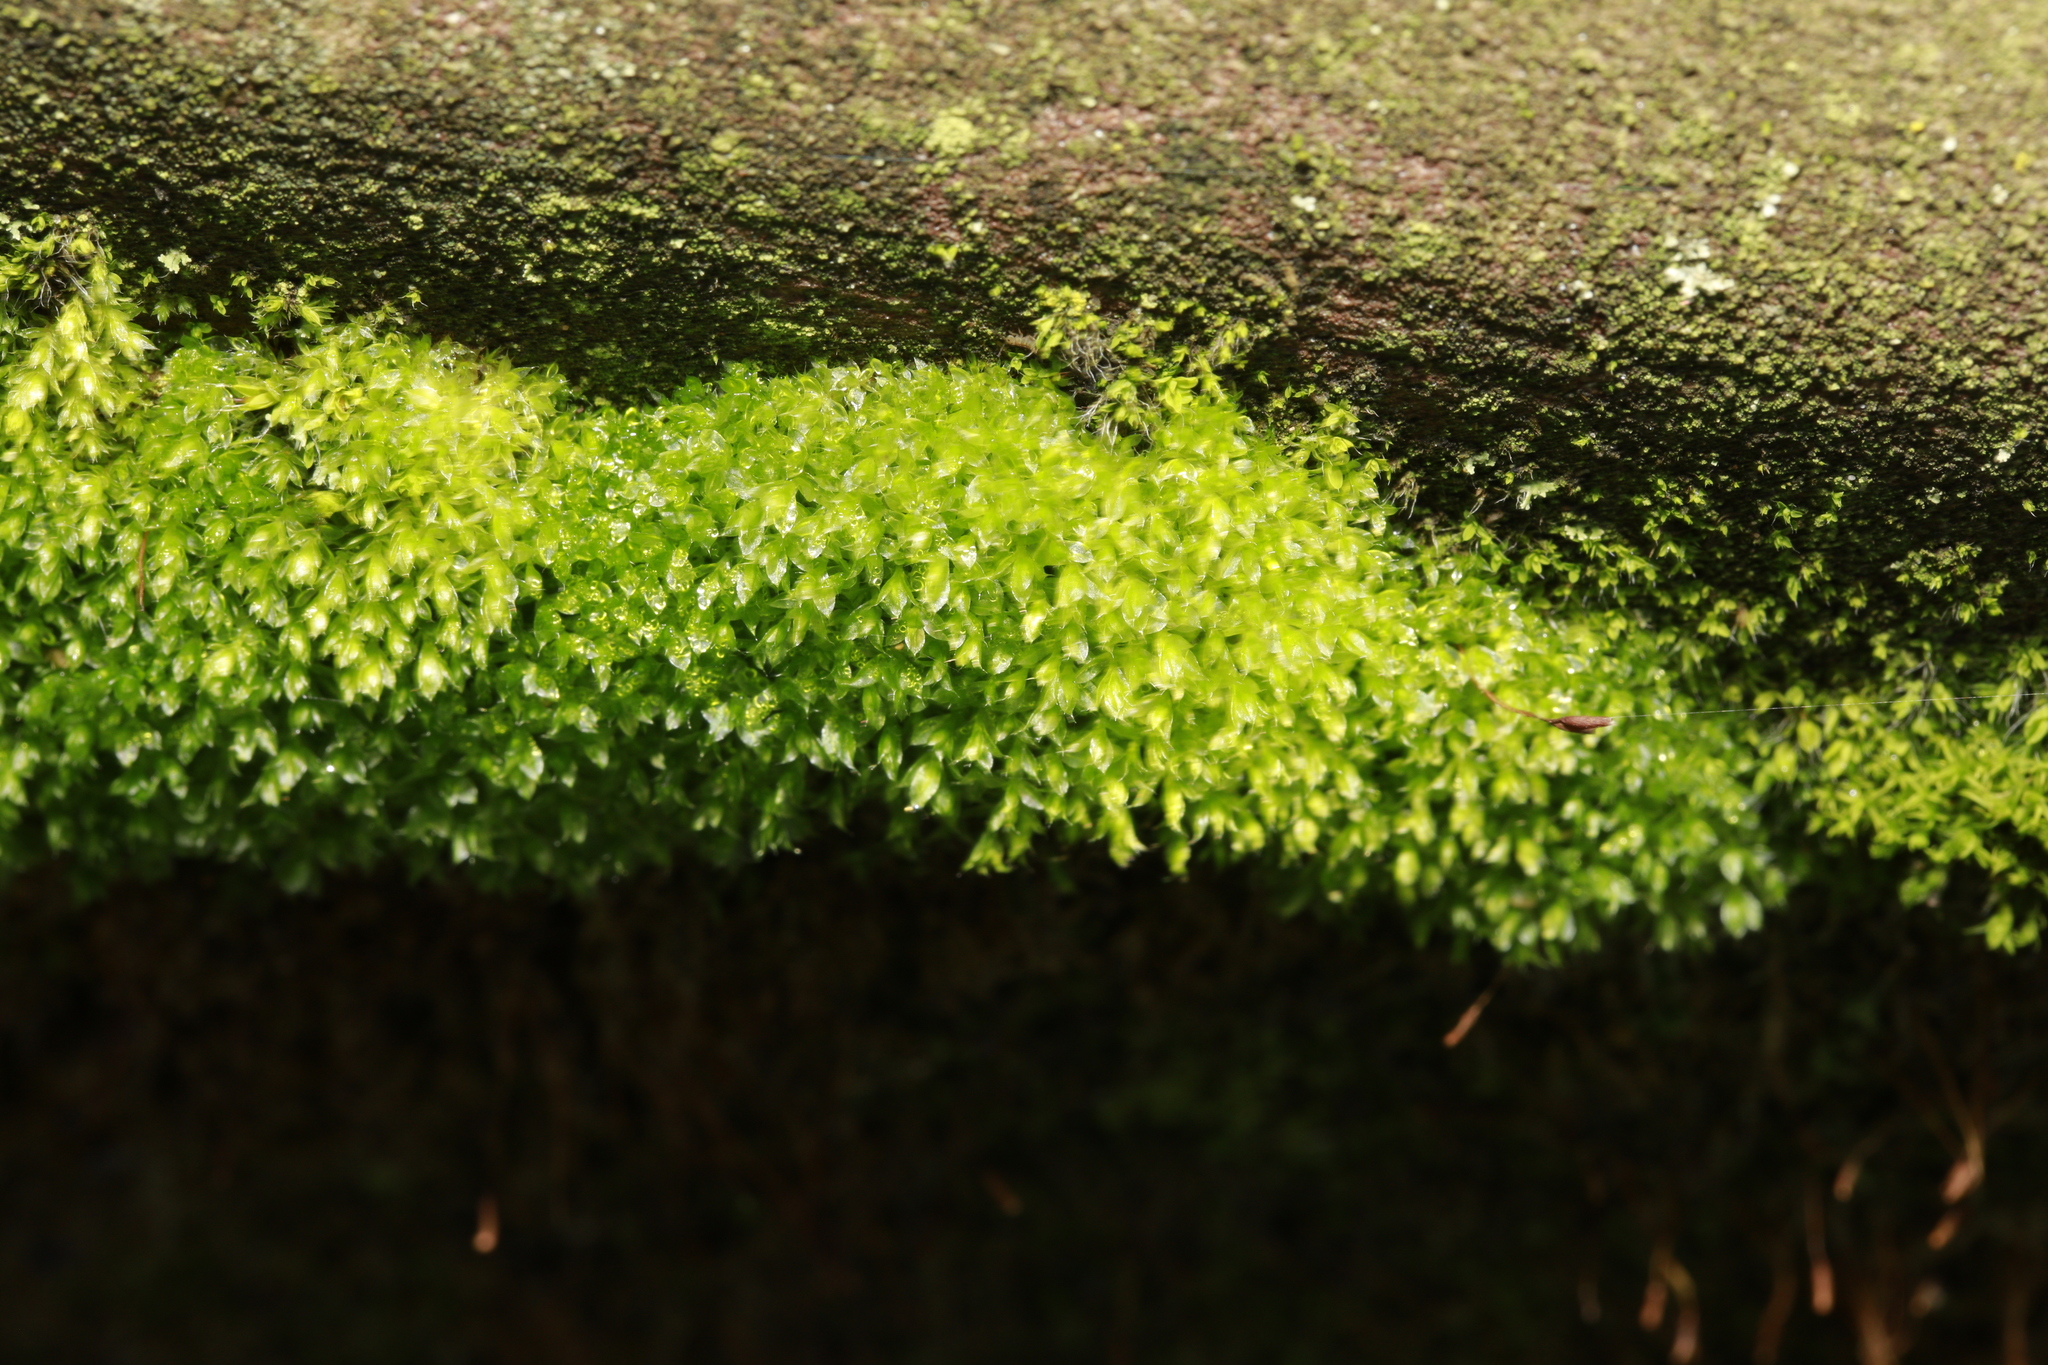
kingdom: Plantae
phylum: Bryophyta
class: Bryopsida
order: Bryales
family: Bryaceae
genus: Rosulabryum
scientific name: Rosulabryum capillare
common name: Capillary thread-moss
